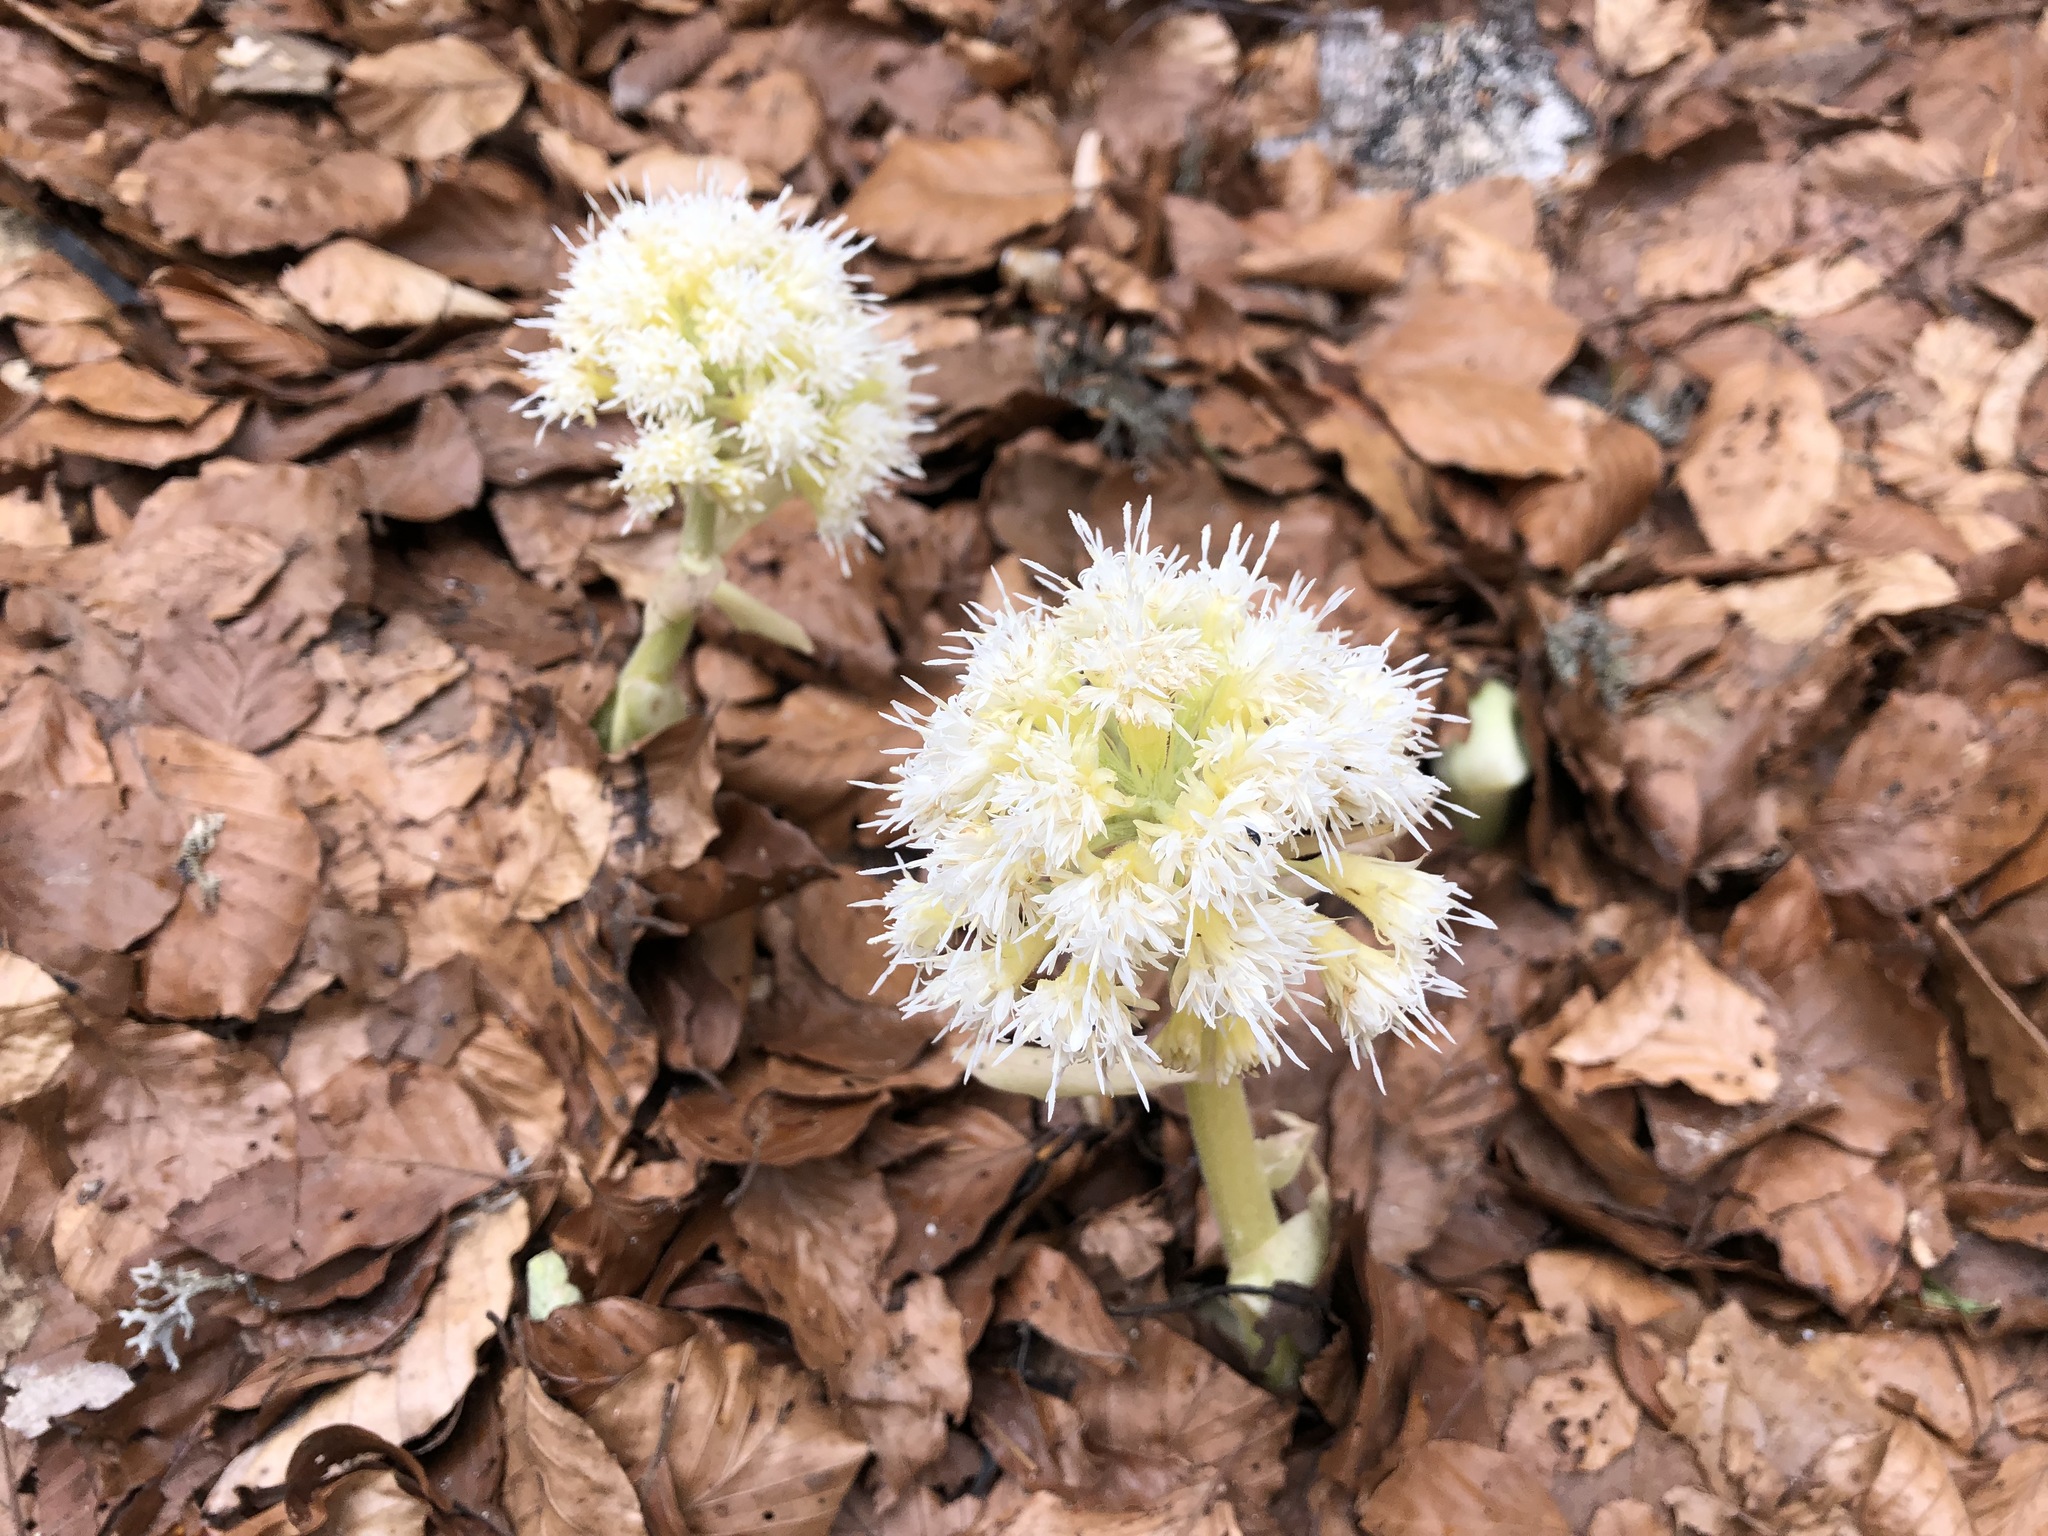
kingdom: Plantae
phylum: Tracheophyta
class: Magnoliopsida
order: Asterales
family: Asteraceae
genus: Petasites
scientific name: Petasites albus
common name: White butterbur
